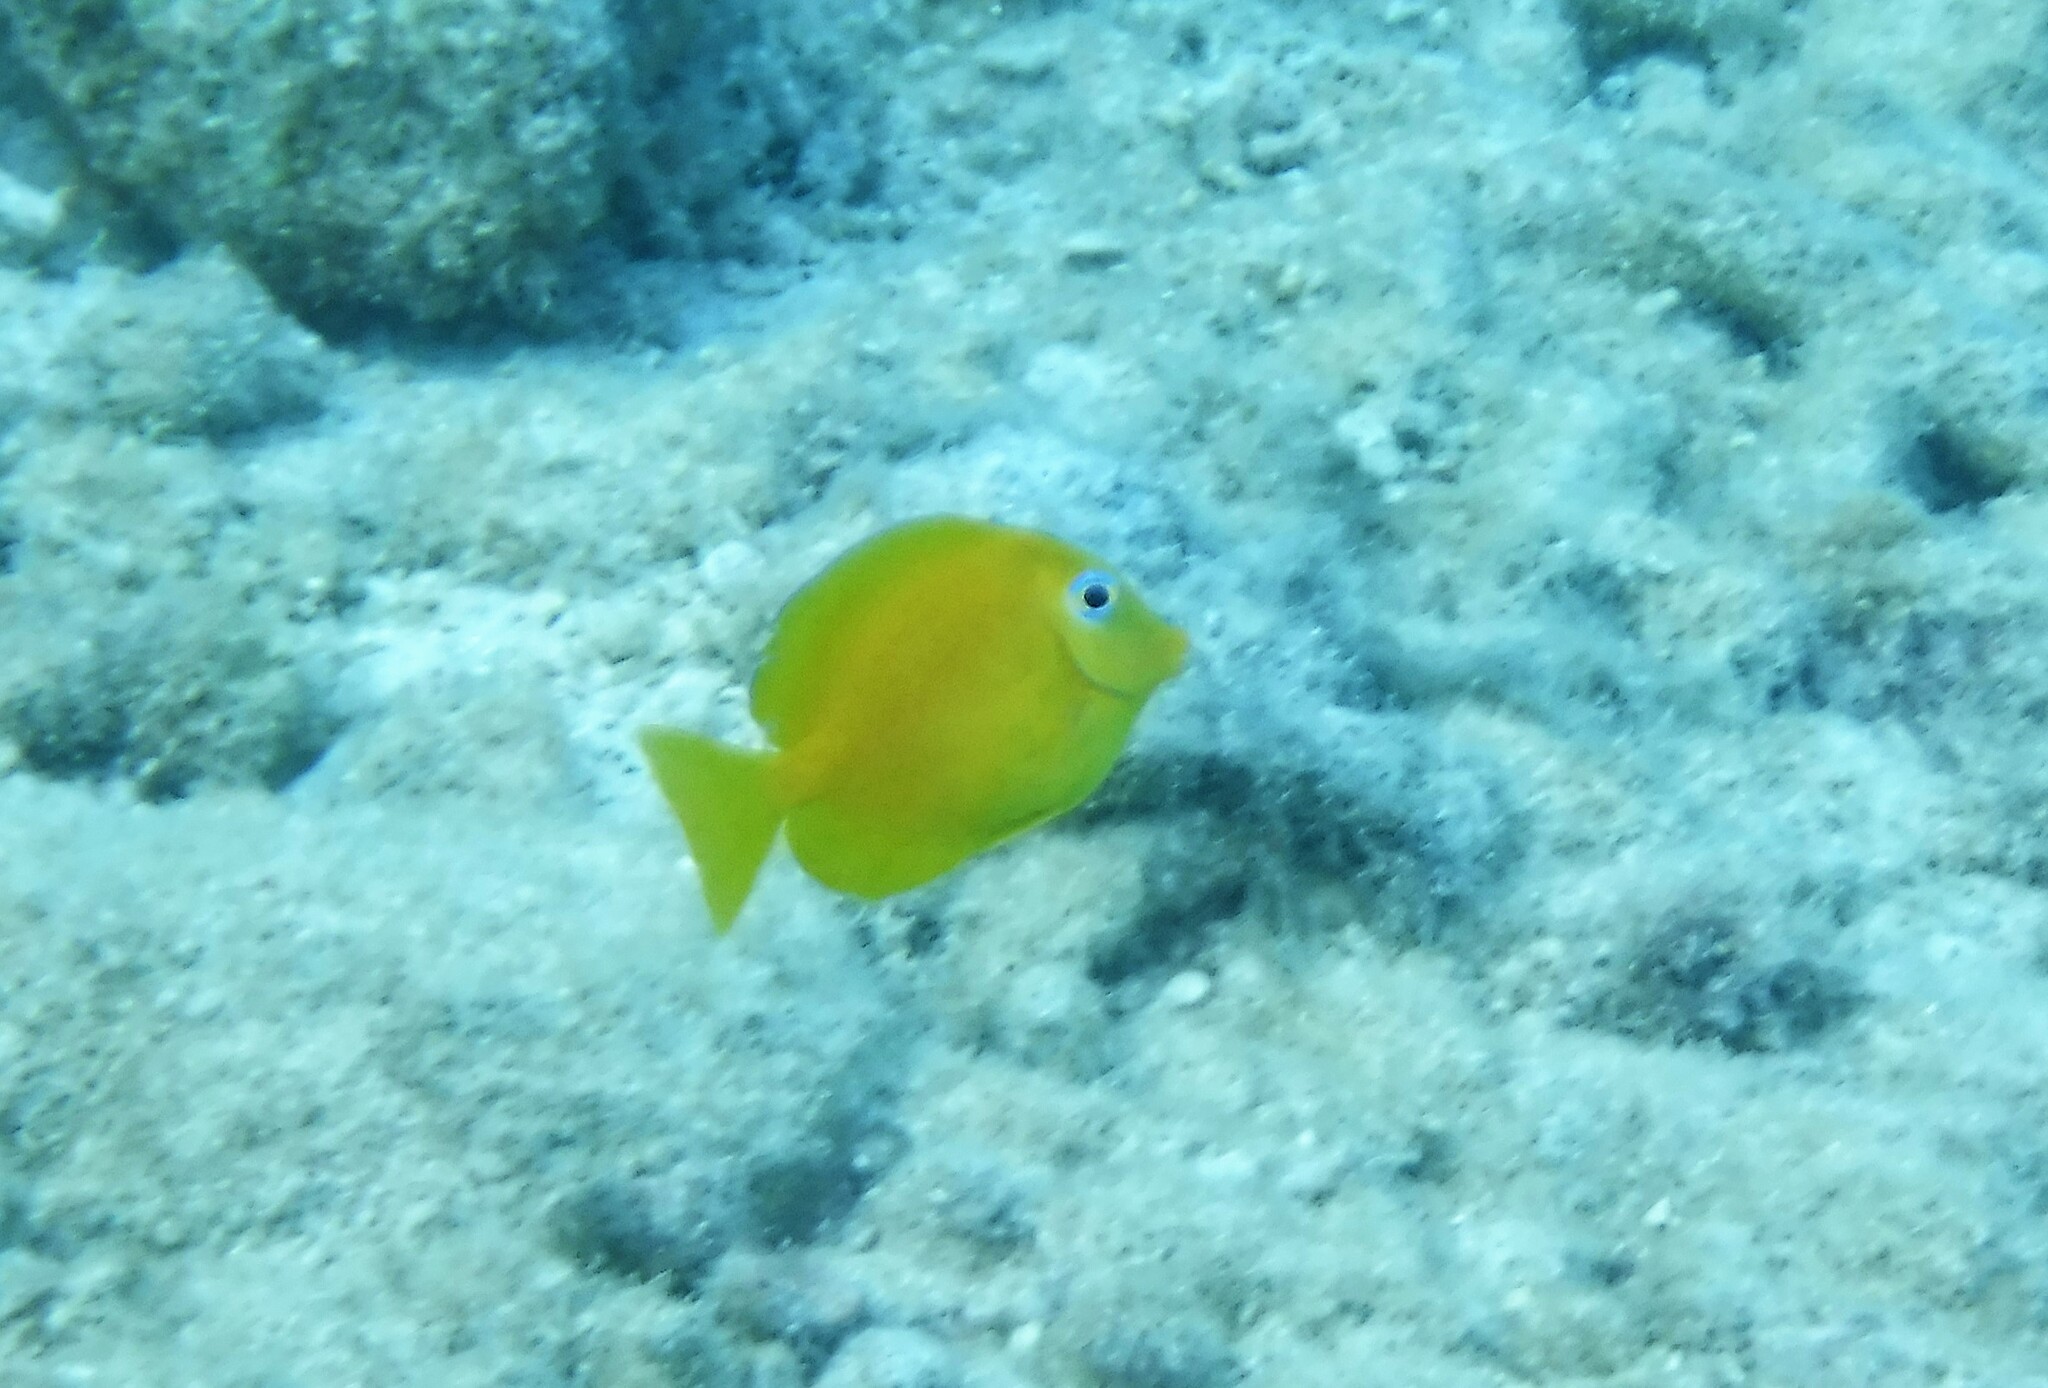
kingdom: Animalia
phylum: Chordata
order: Perciformes
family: Acanthuridae
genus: Acanthurus
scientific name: Acanthurus coeruleus
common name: Blue tang
